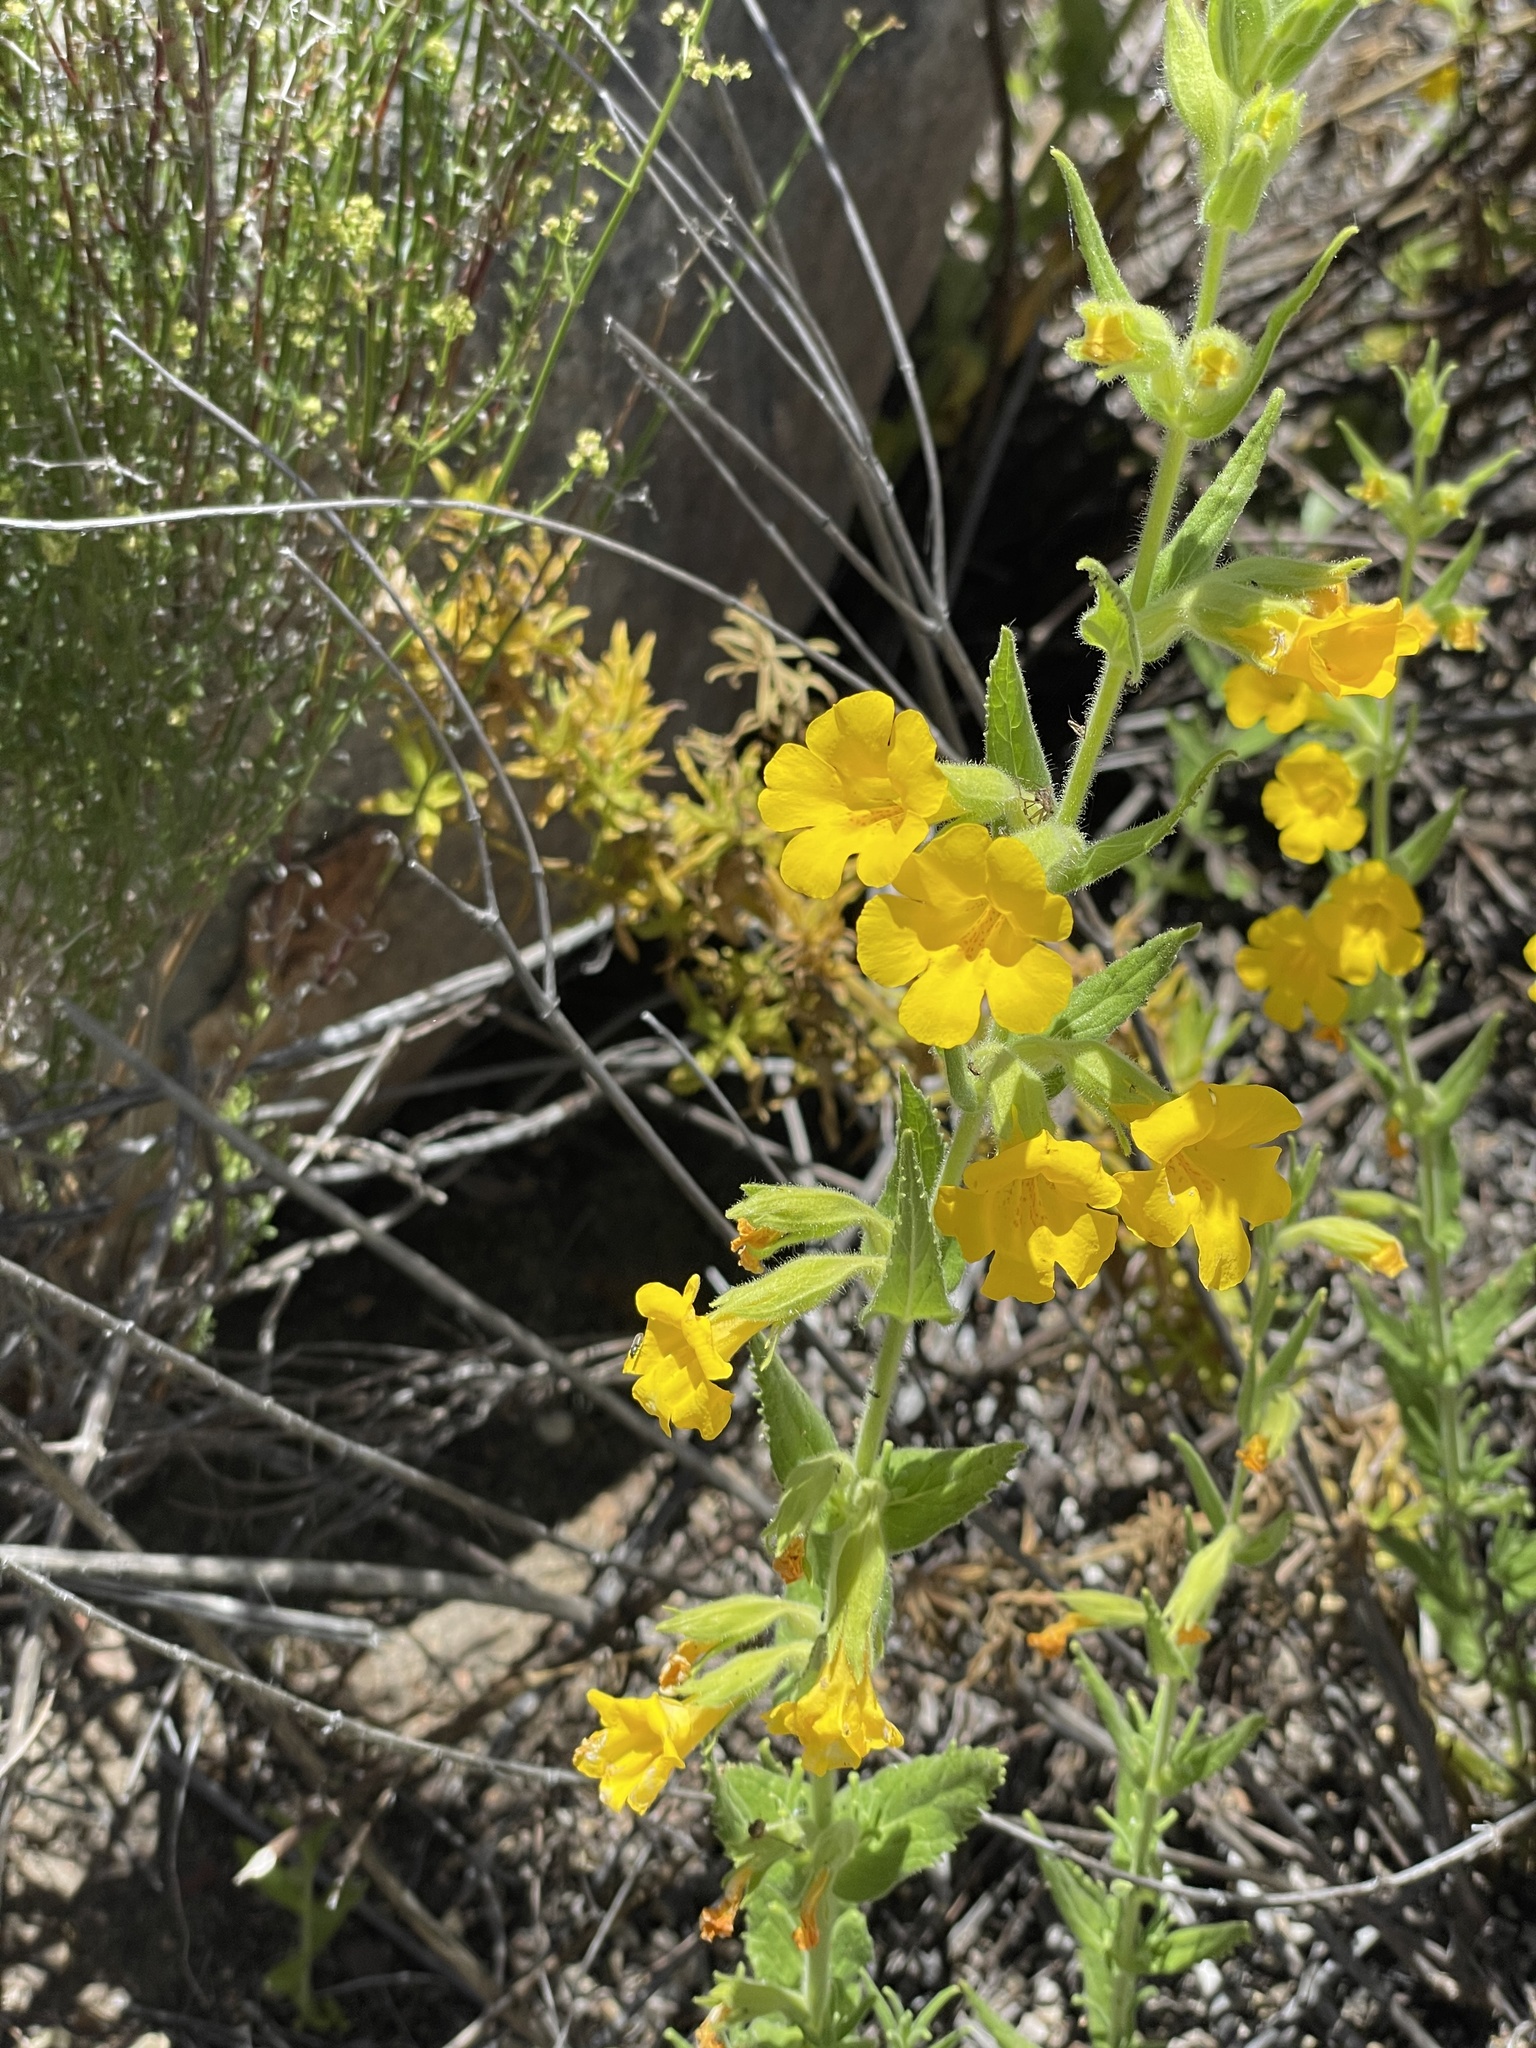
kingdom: Plantae
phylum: Tracheophyta
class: Magnoliopsida
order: Lamiales
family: Phrymaceae
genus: Diplacus
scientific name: Diplacus clevelandii
